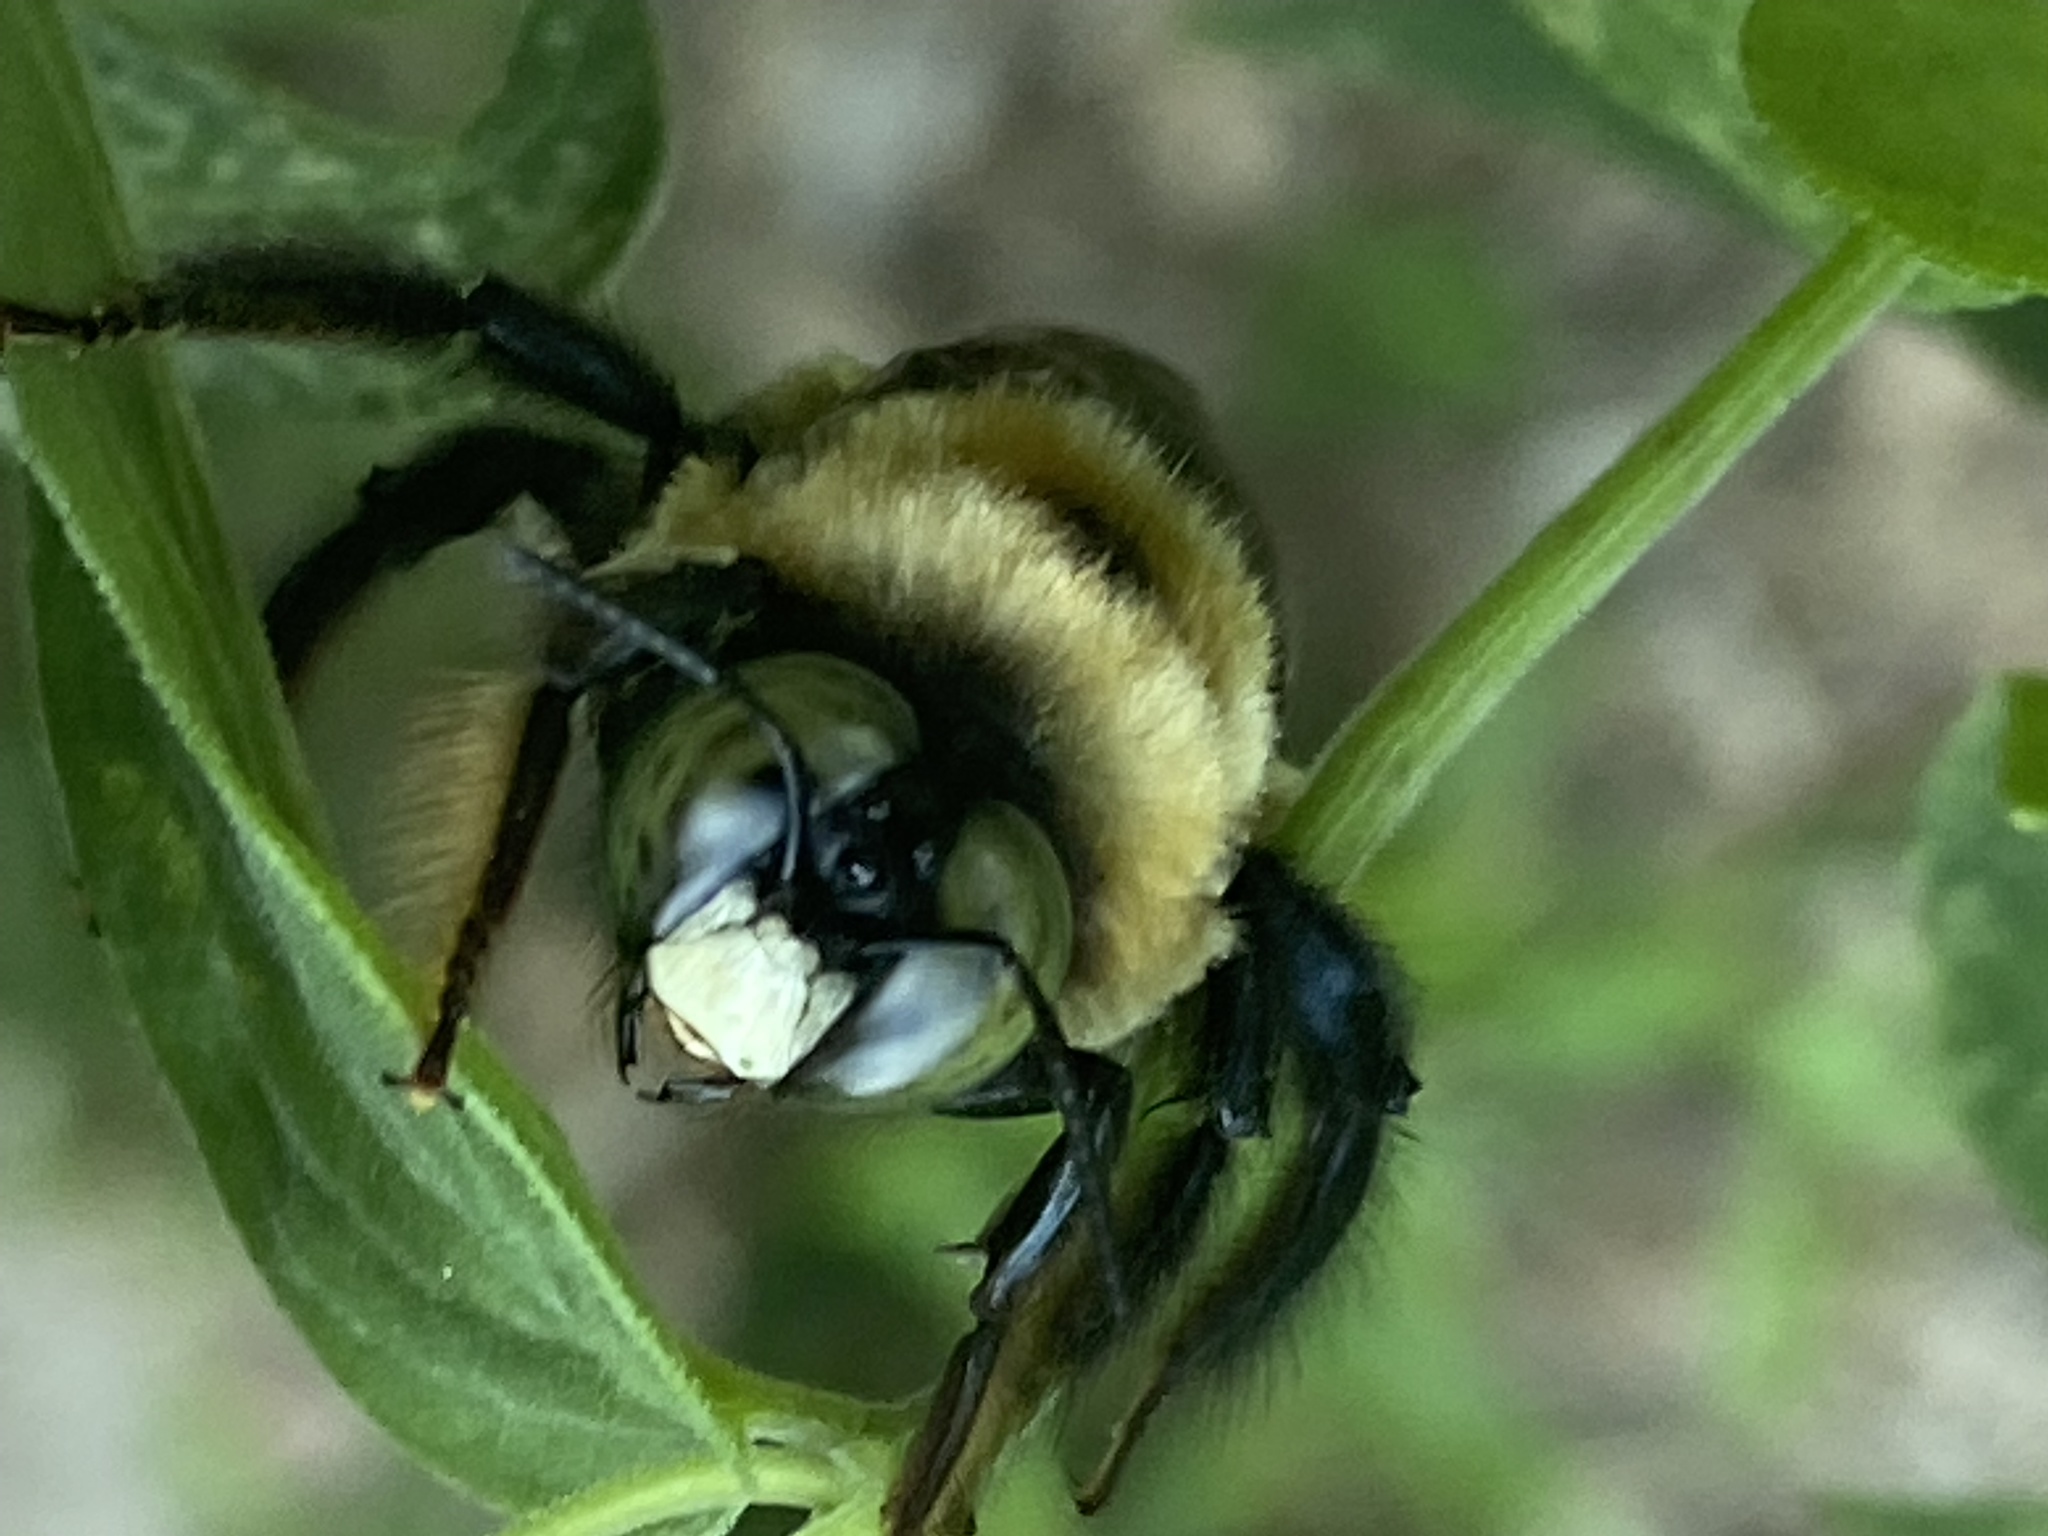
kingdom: Animalia
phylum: Arthropoda
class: Insecta
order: Hymenoptera
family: Apidae
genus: Xylocopa
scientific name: Xylocopa virginica
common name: Carpenter bee
